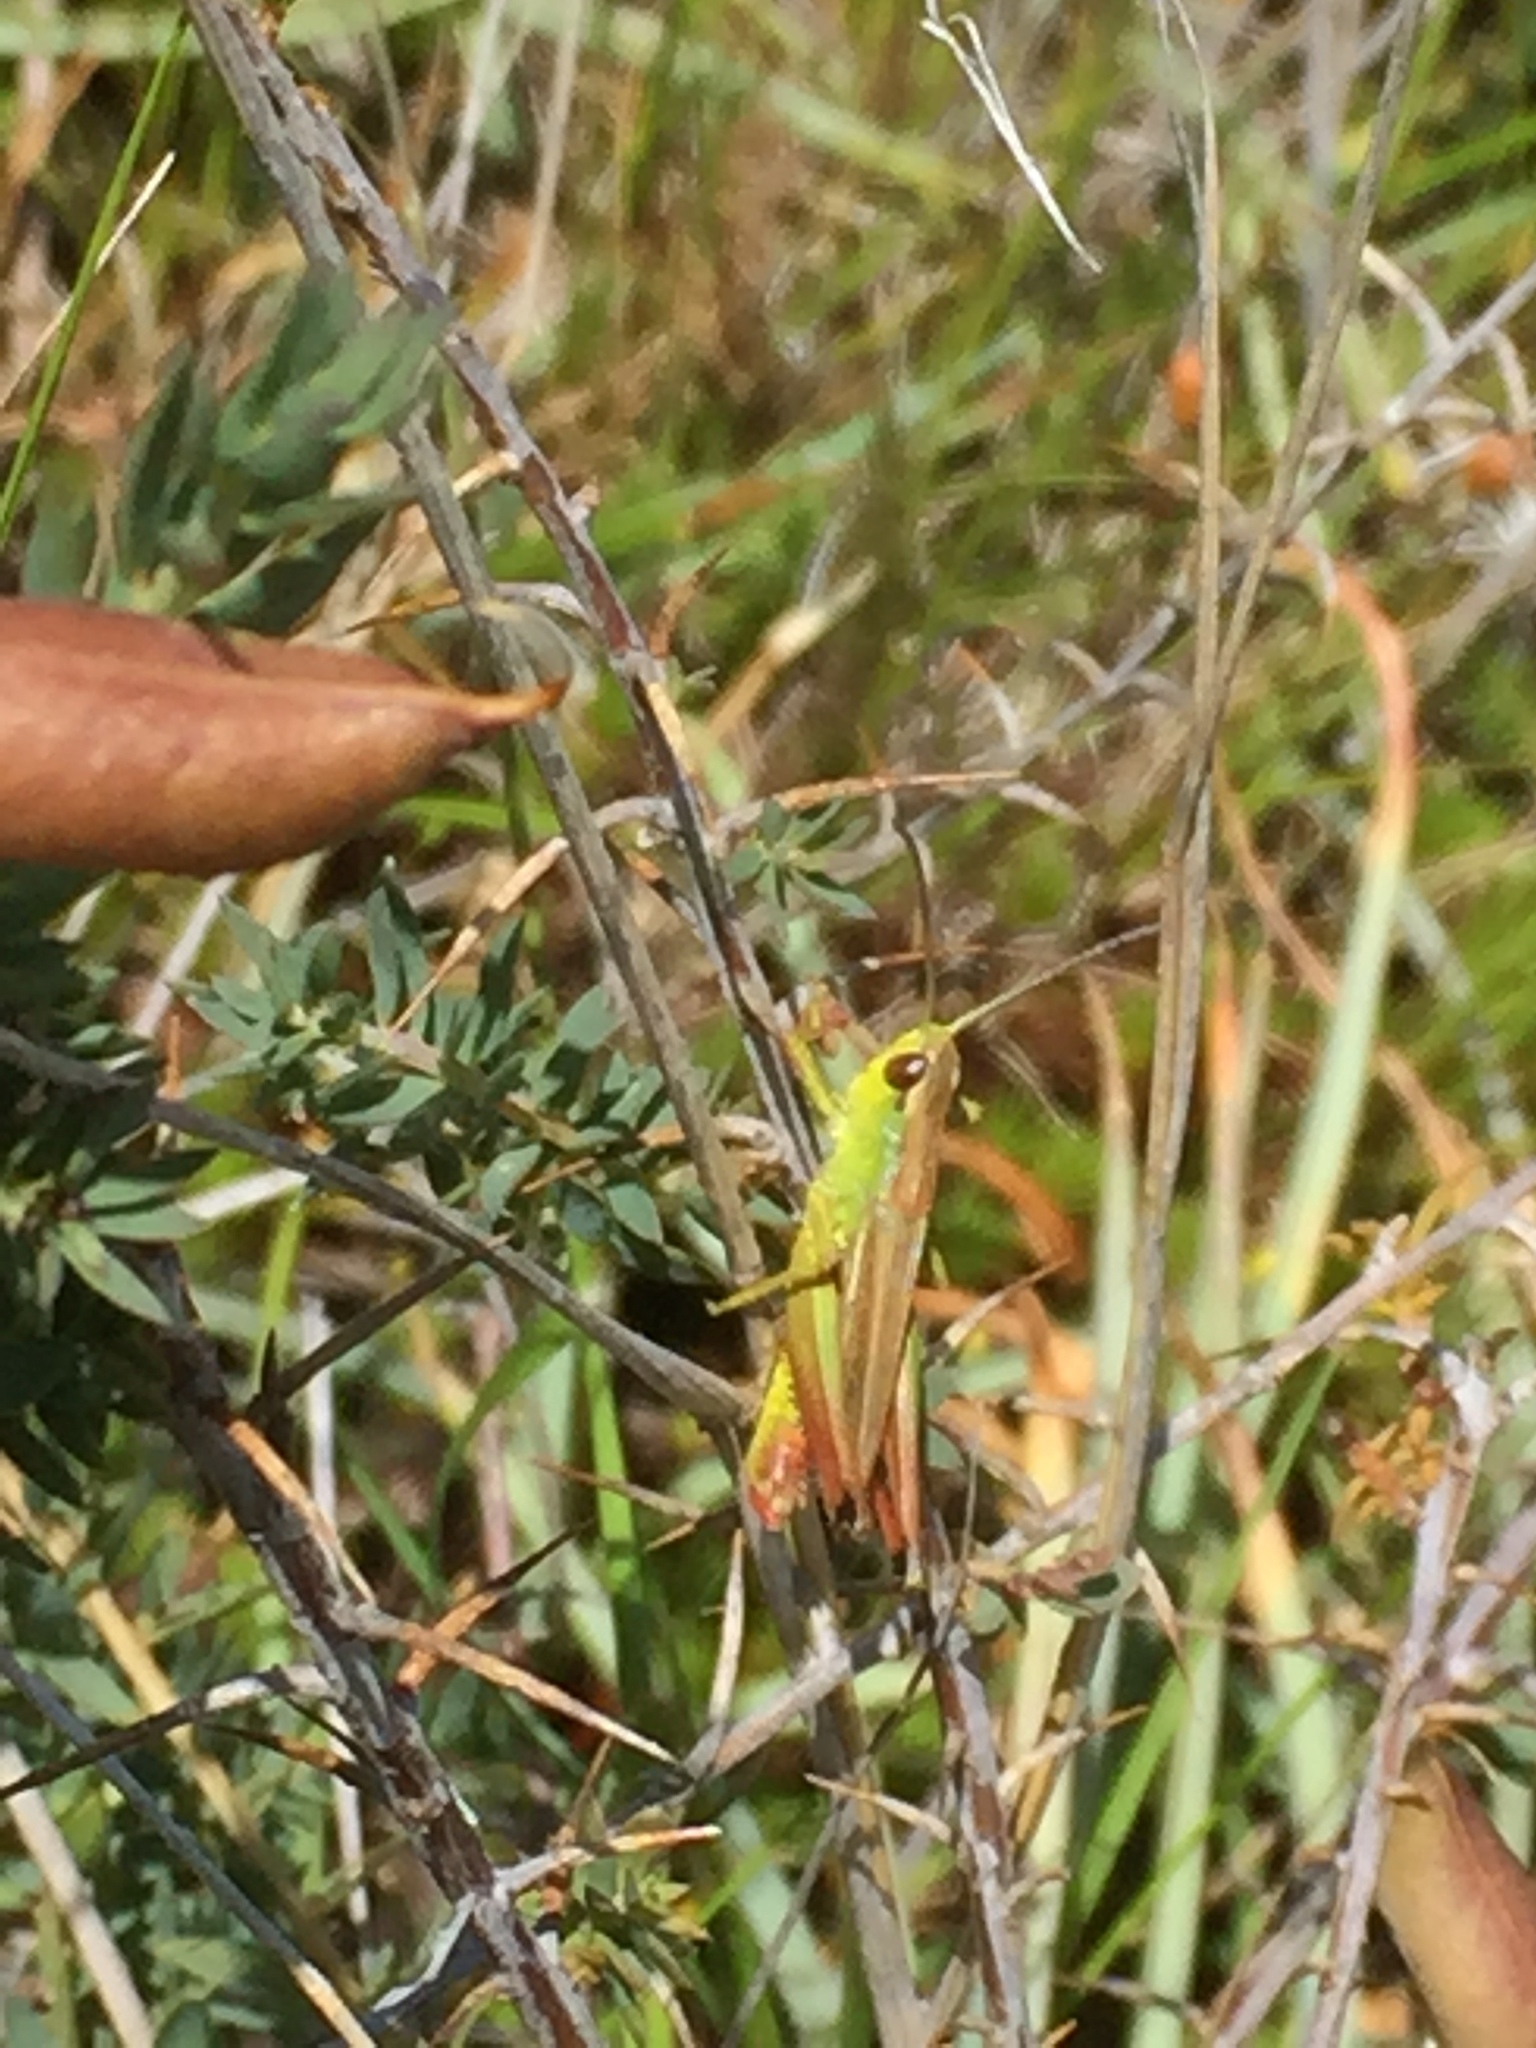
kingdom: Animalia
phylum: Arthropoda
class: Insecta
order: Orthoptera
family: Acrididae
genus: Pseudochorthippus
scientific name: Pseudochorthippus parallelus
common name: Meadow grasshopper
